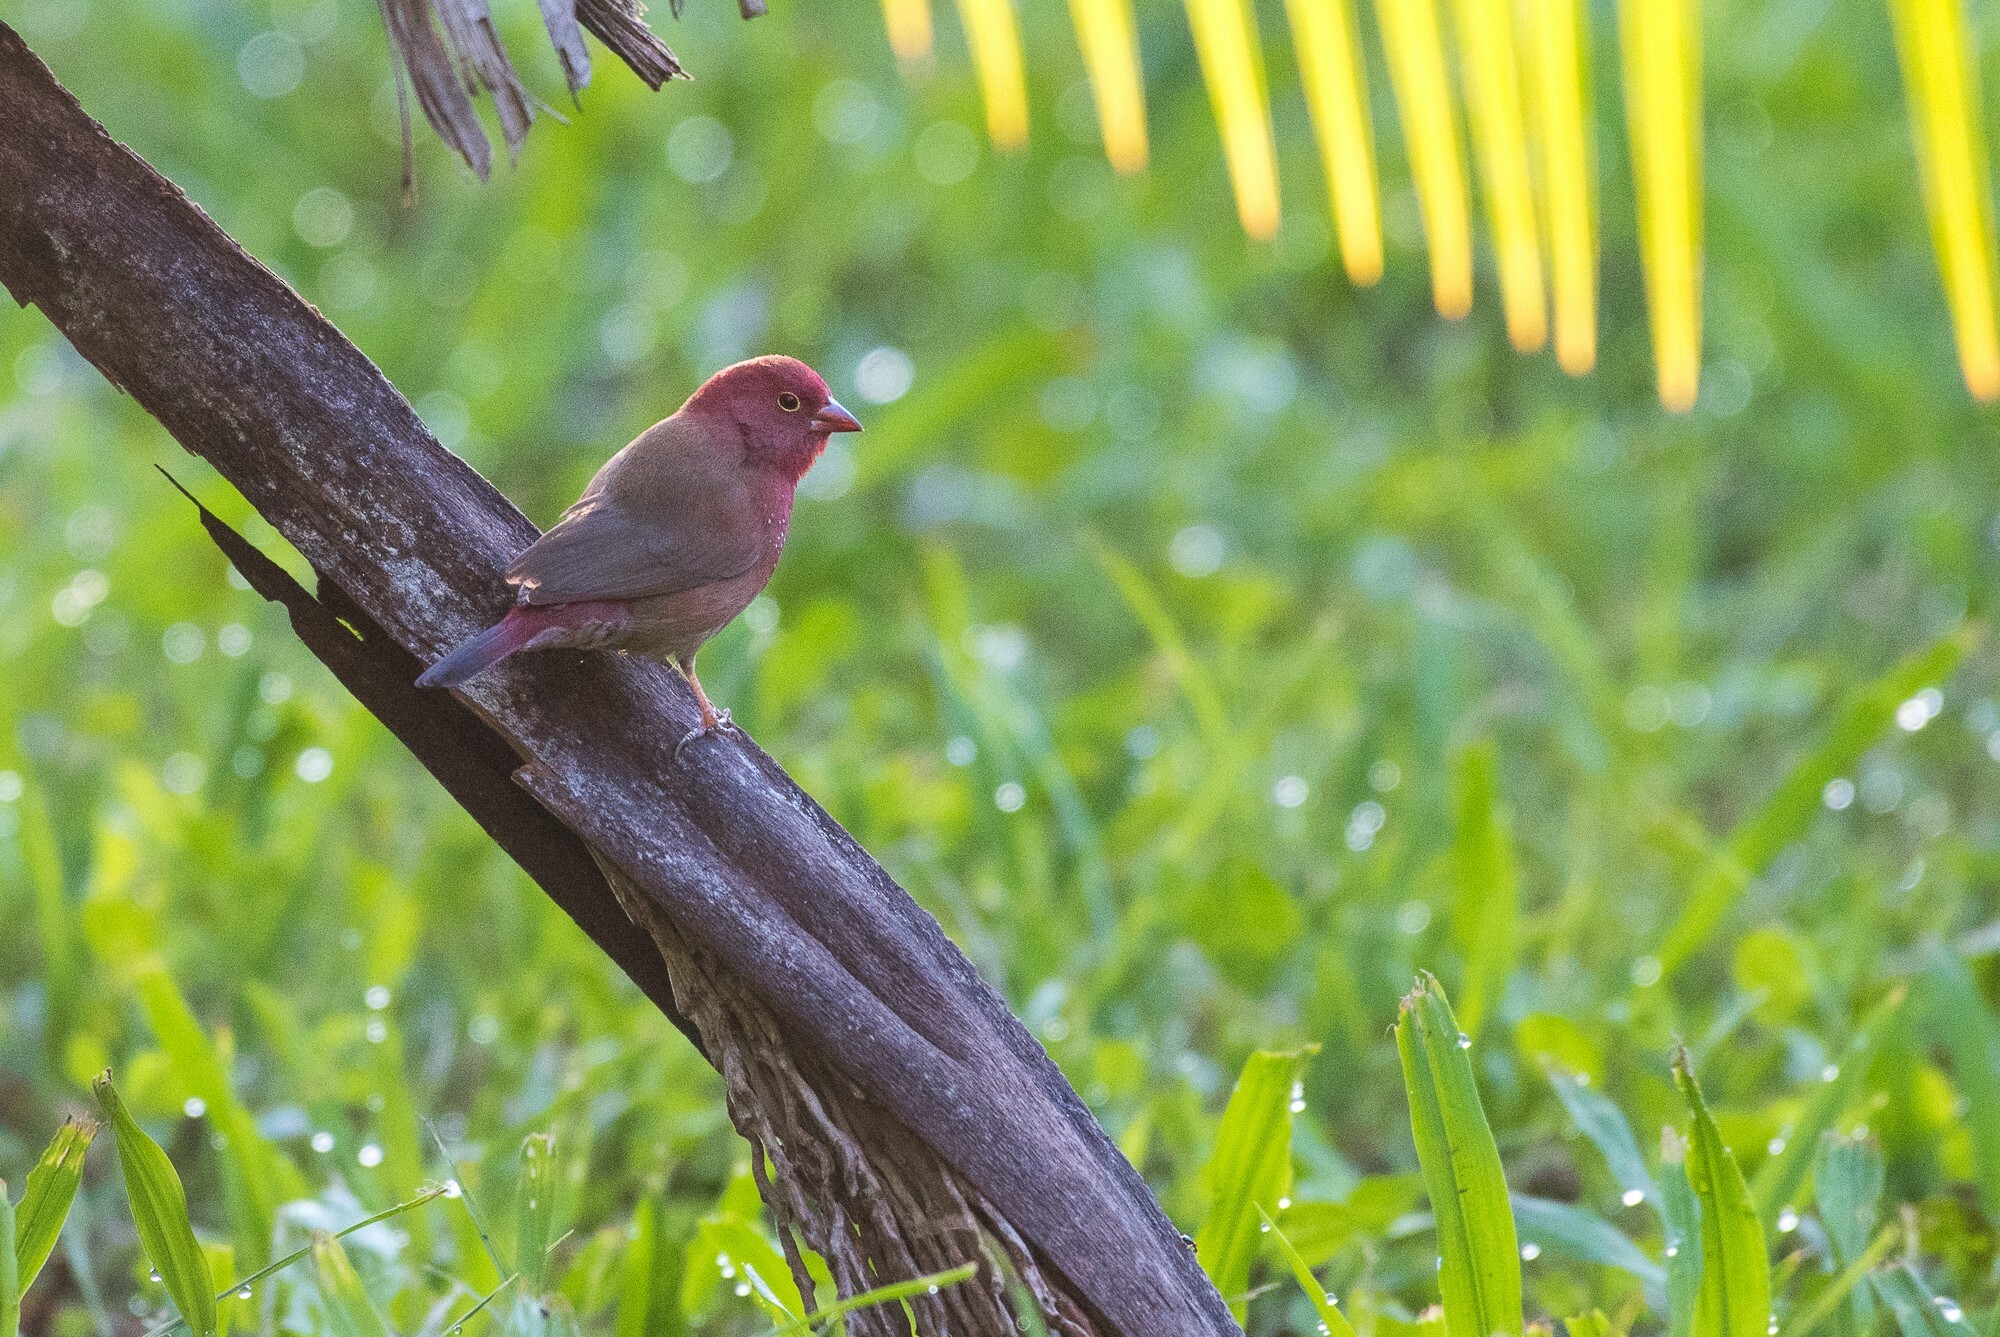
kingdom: Animalia
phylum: Chordata
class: Aves
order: Passeriformes
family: Estrildidae
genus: Lagonosticta
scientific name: Lagonosticta senegala
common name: Red-billed firefinch
